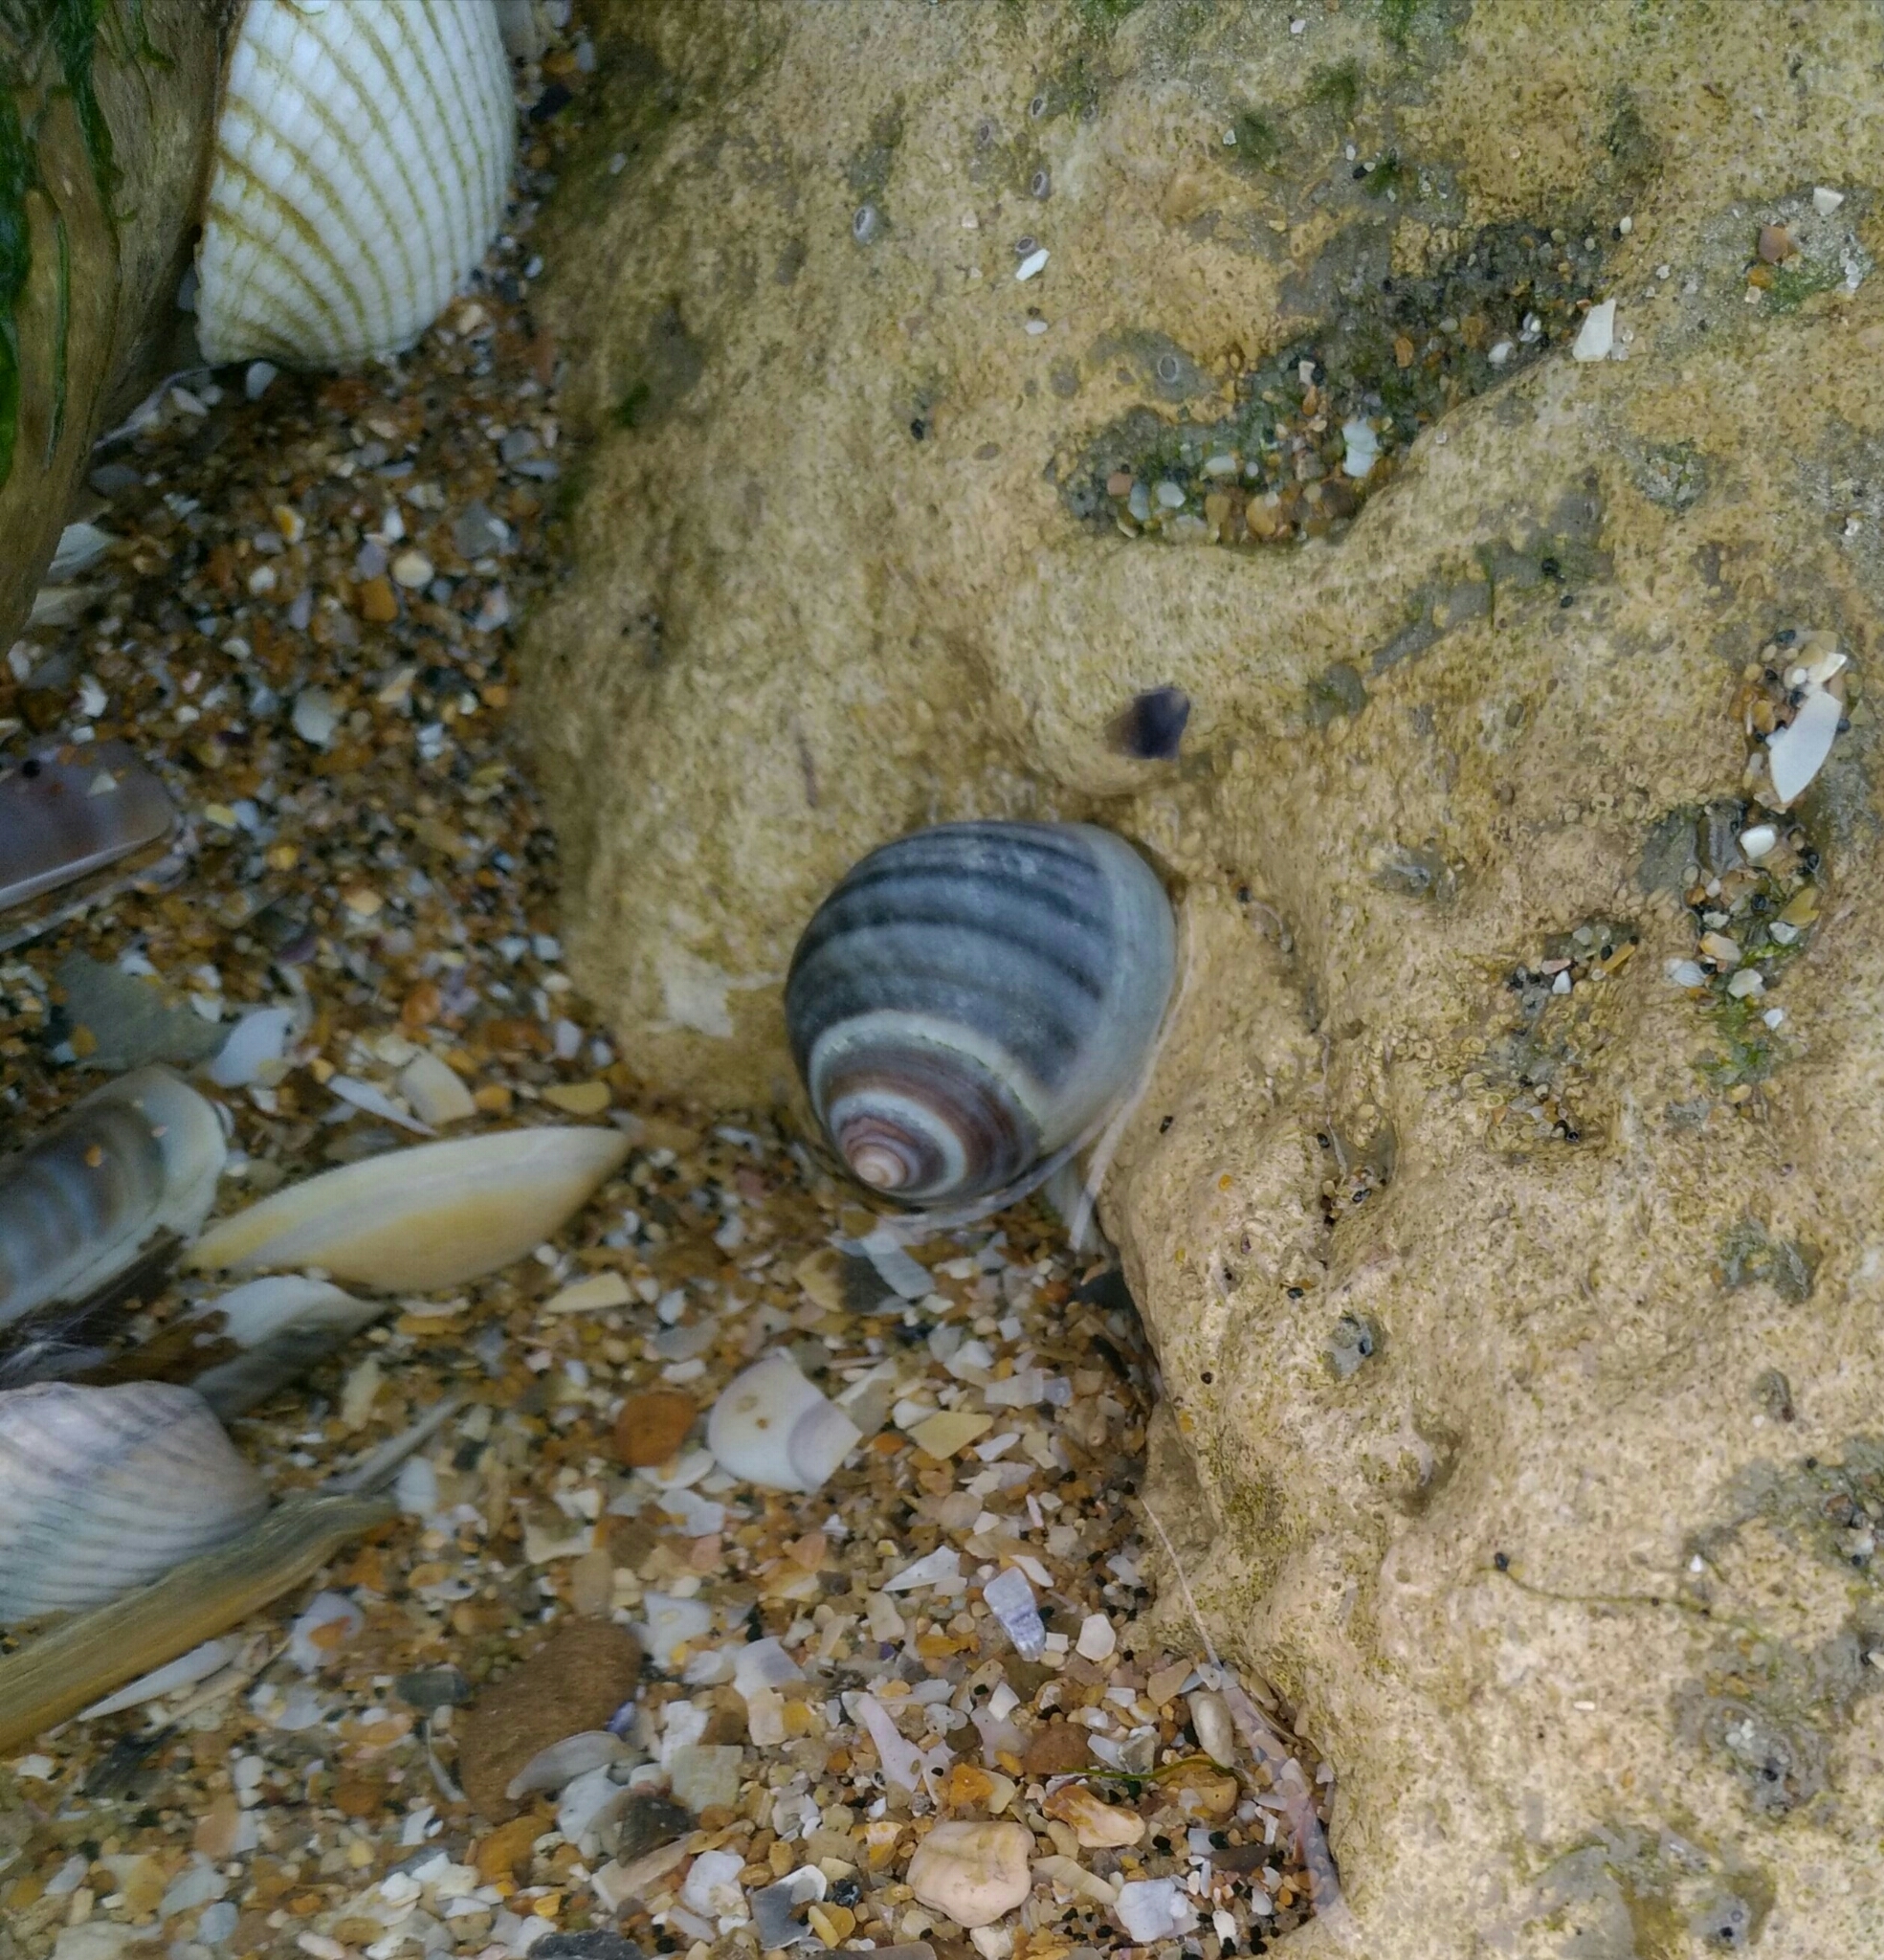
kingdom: Animalia
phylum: Mollusca
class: Gastropoda
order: Littorinimorpha
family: Littorinidae
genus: Littorina
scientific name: Littorina littorea
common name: Common periwinkle
